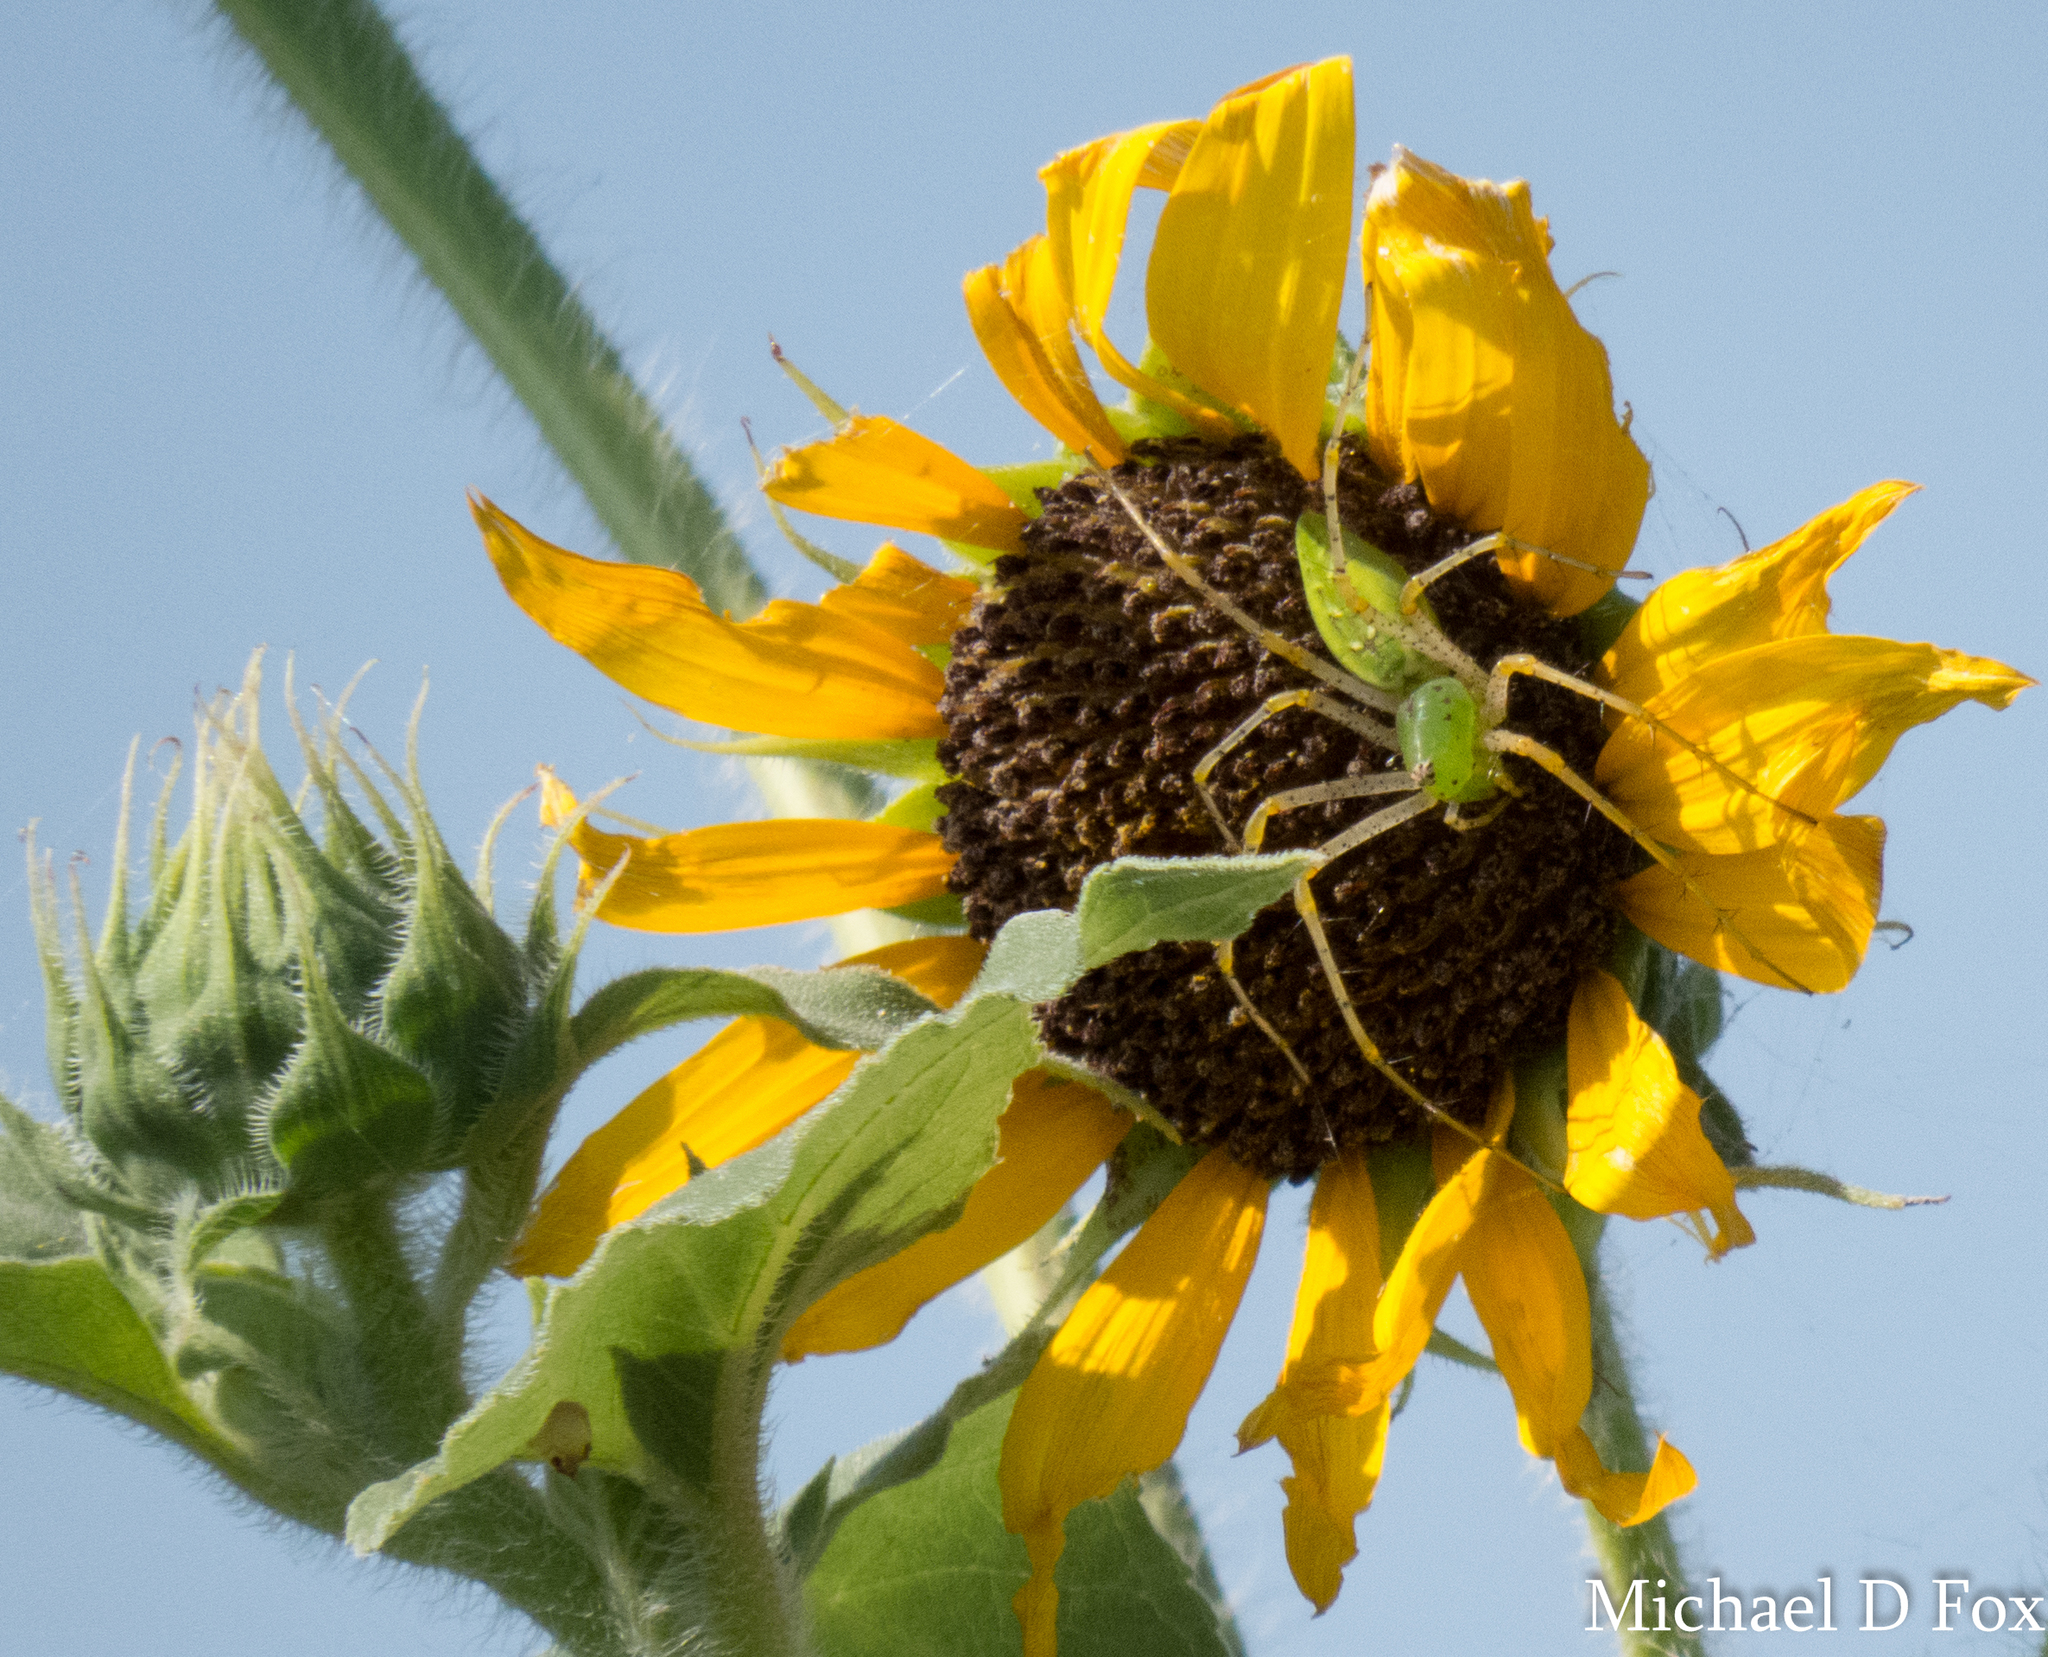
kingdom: Animalia
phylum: Arthropoda
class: Arachnida
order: Araneae
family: Oxyopidae
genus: Peucetia
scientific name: Peucetia viridans
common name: Lynx spiders
